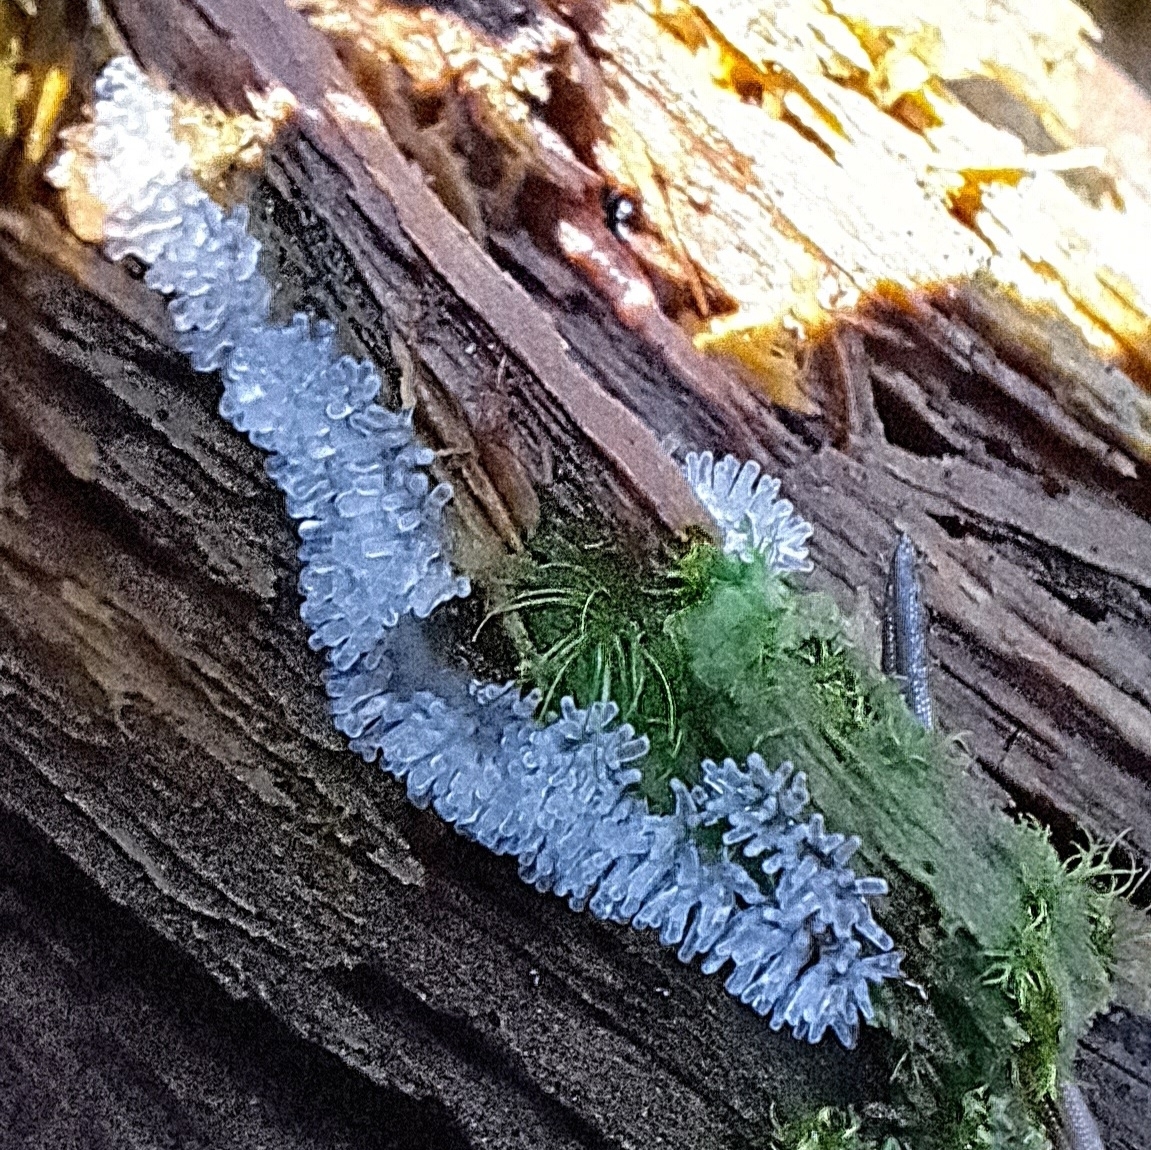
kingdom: Protozoa
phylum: Mycetozoa
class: Protosteliomycetes
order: Ceratiomyxales
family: Ceratiomyxaceae
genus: Ceratiomyxa
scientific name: Ceratiomyxa fruticulosa
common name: Honeycomb coral slime mold
